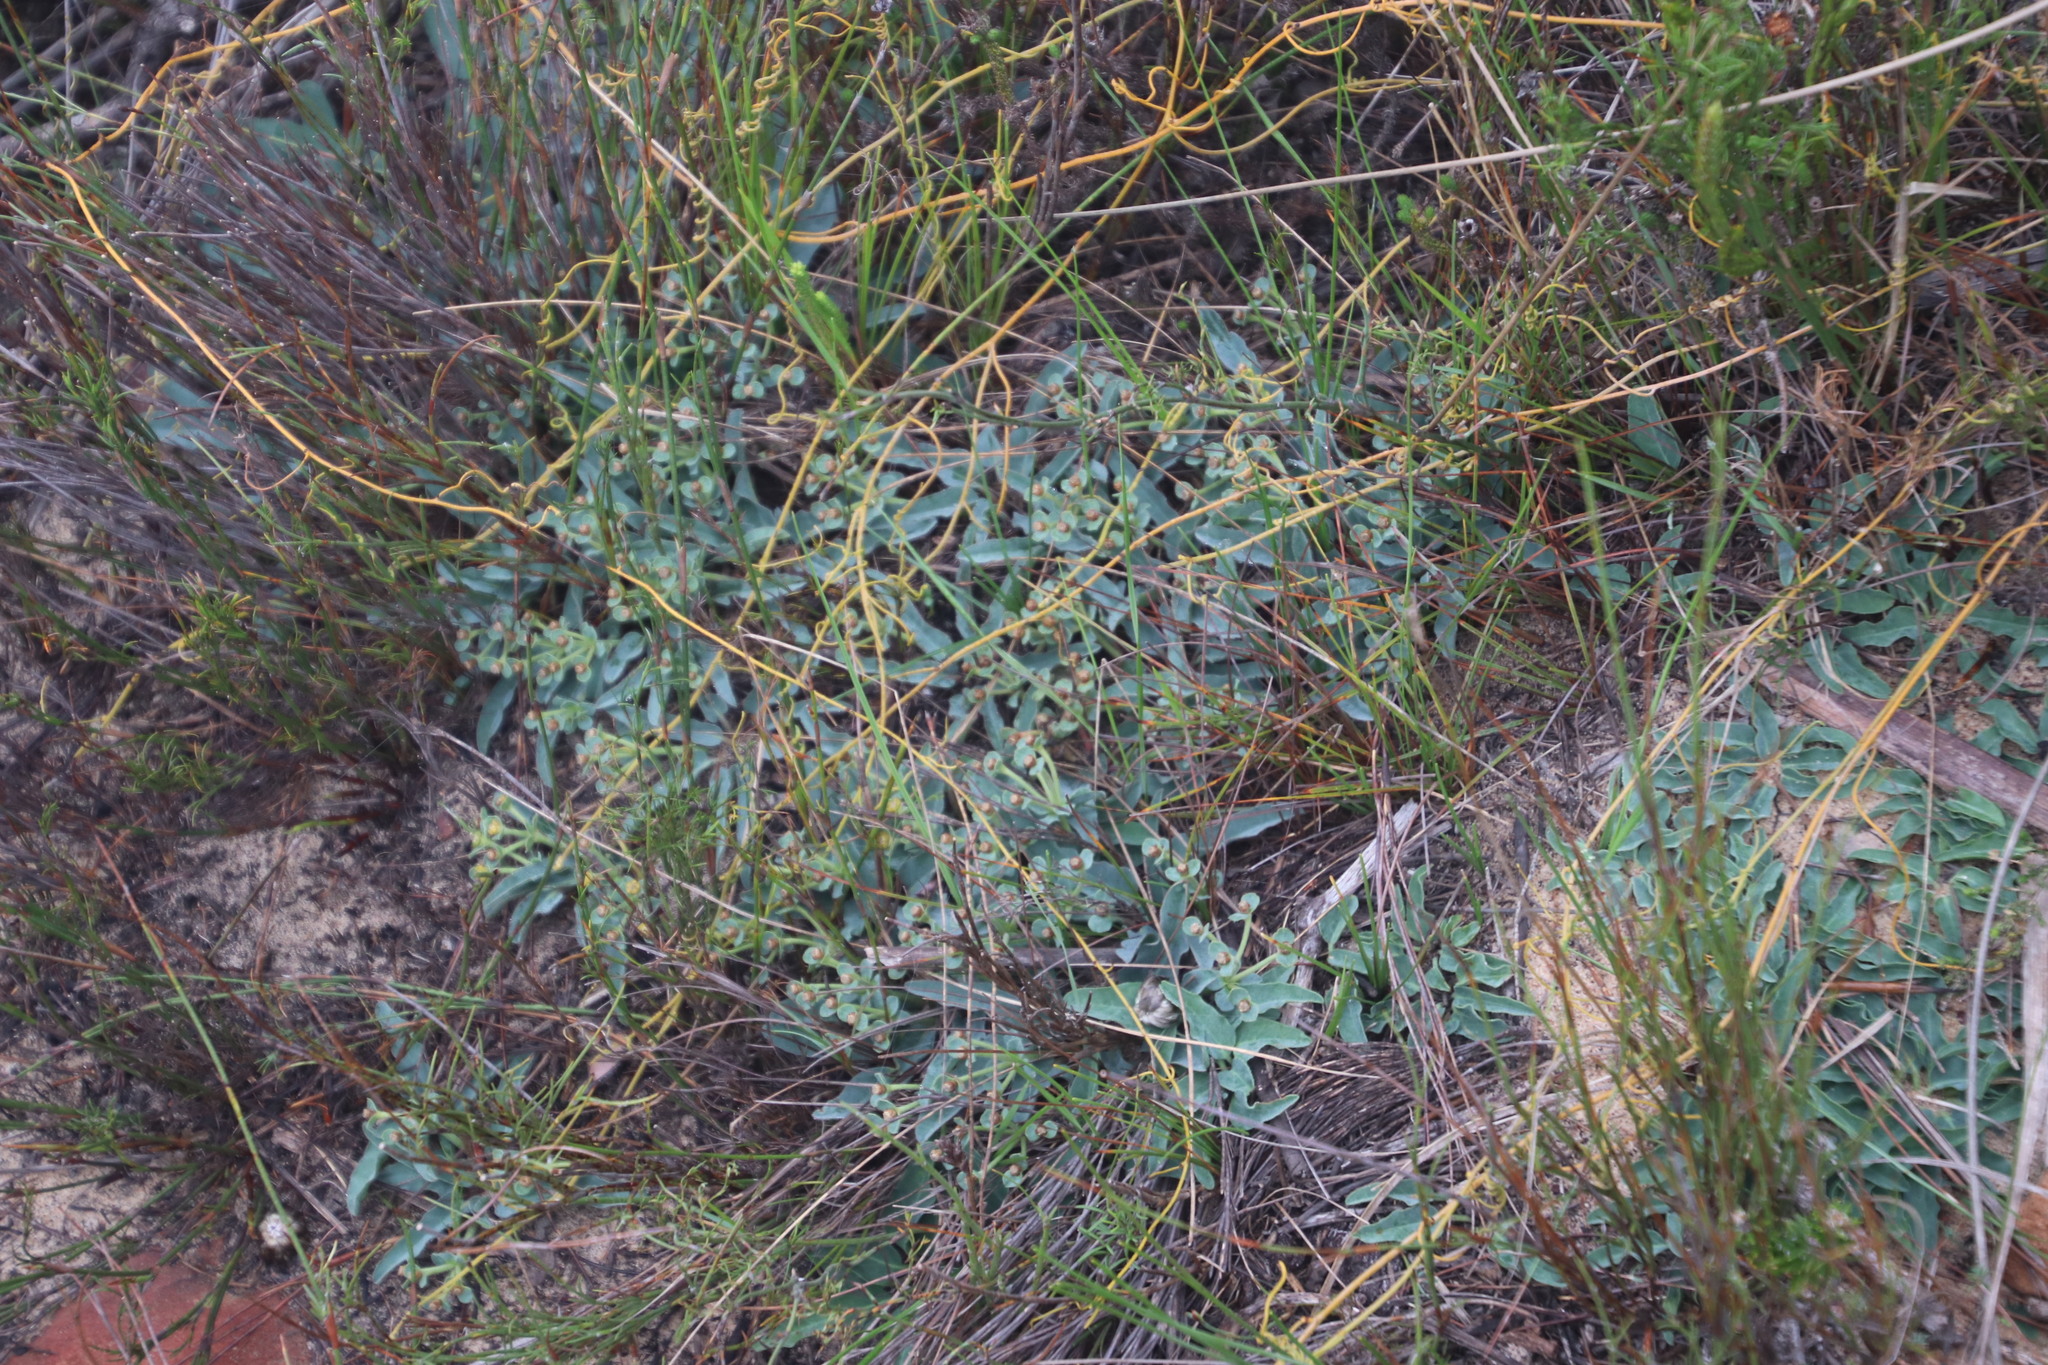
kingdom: Plantae
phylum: Tracheophyta
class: Magnoliopsida
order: Malpighiales
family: Euphorbiaceae
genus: Euphorbia
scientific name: Euphorbia tuberosa
